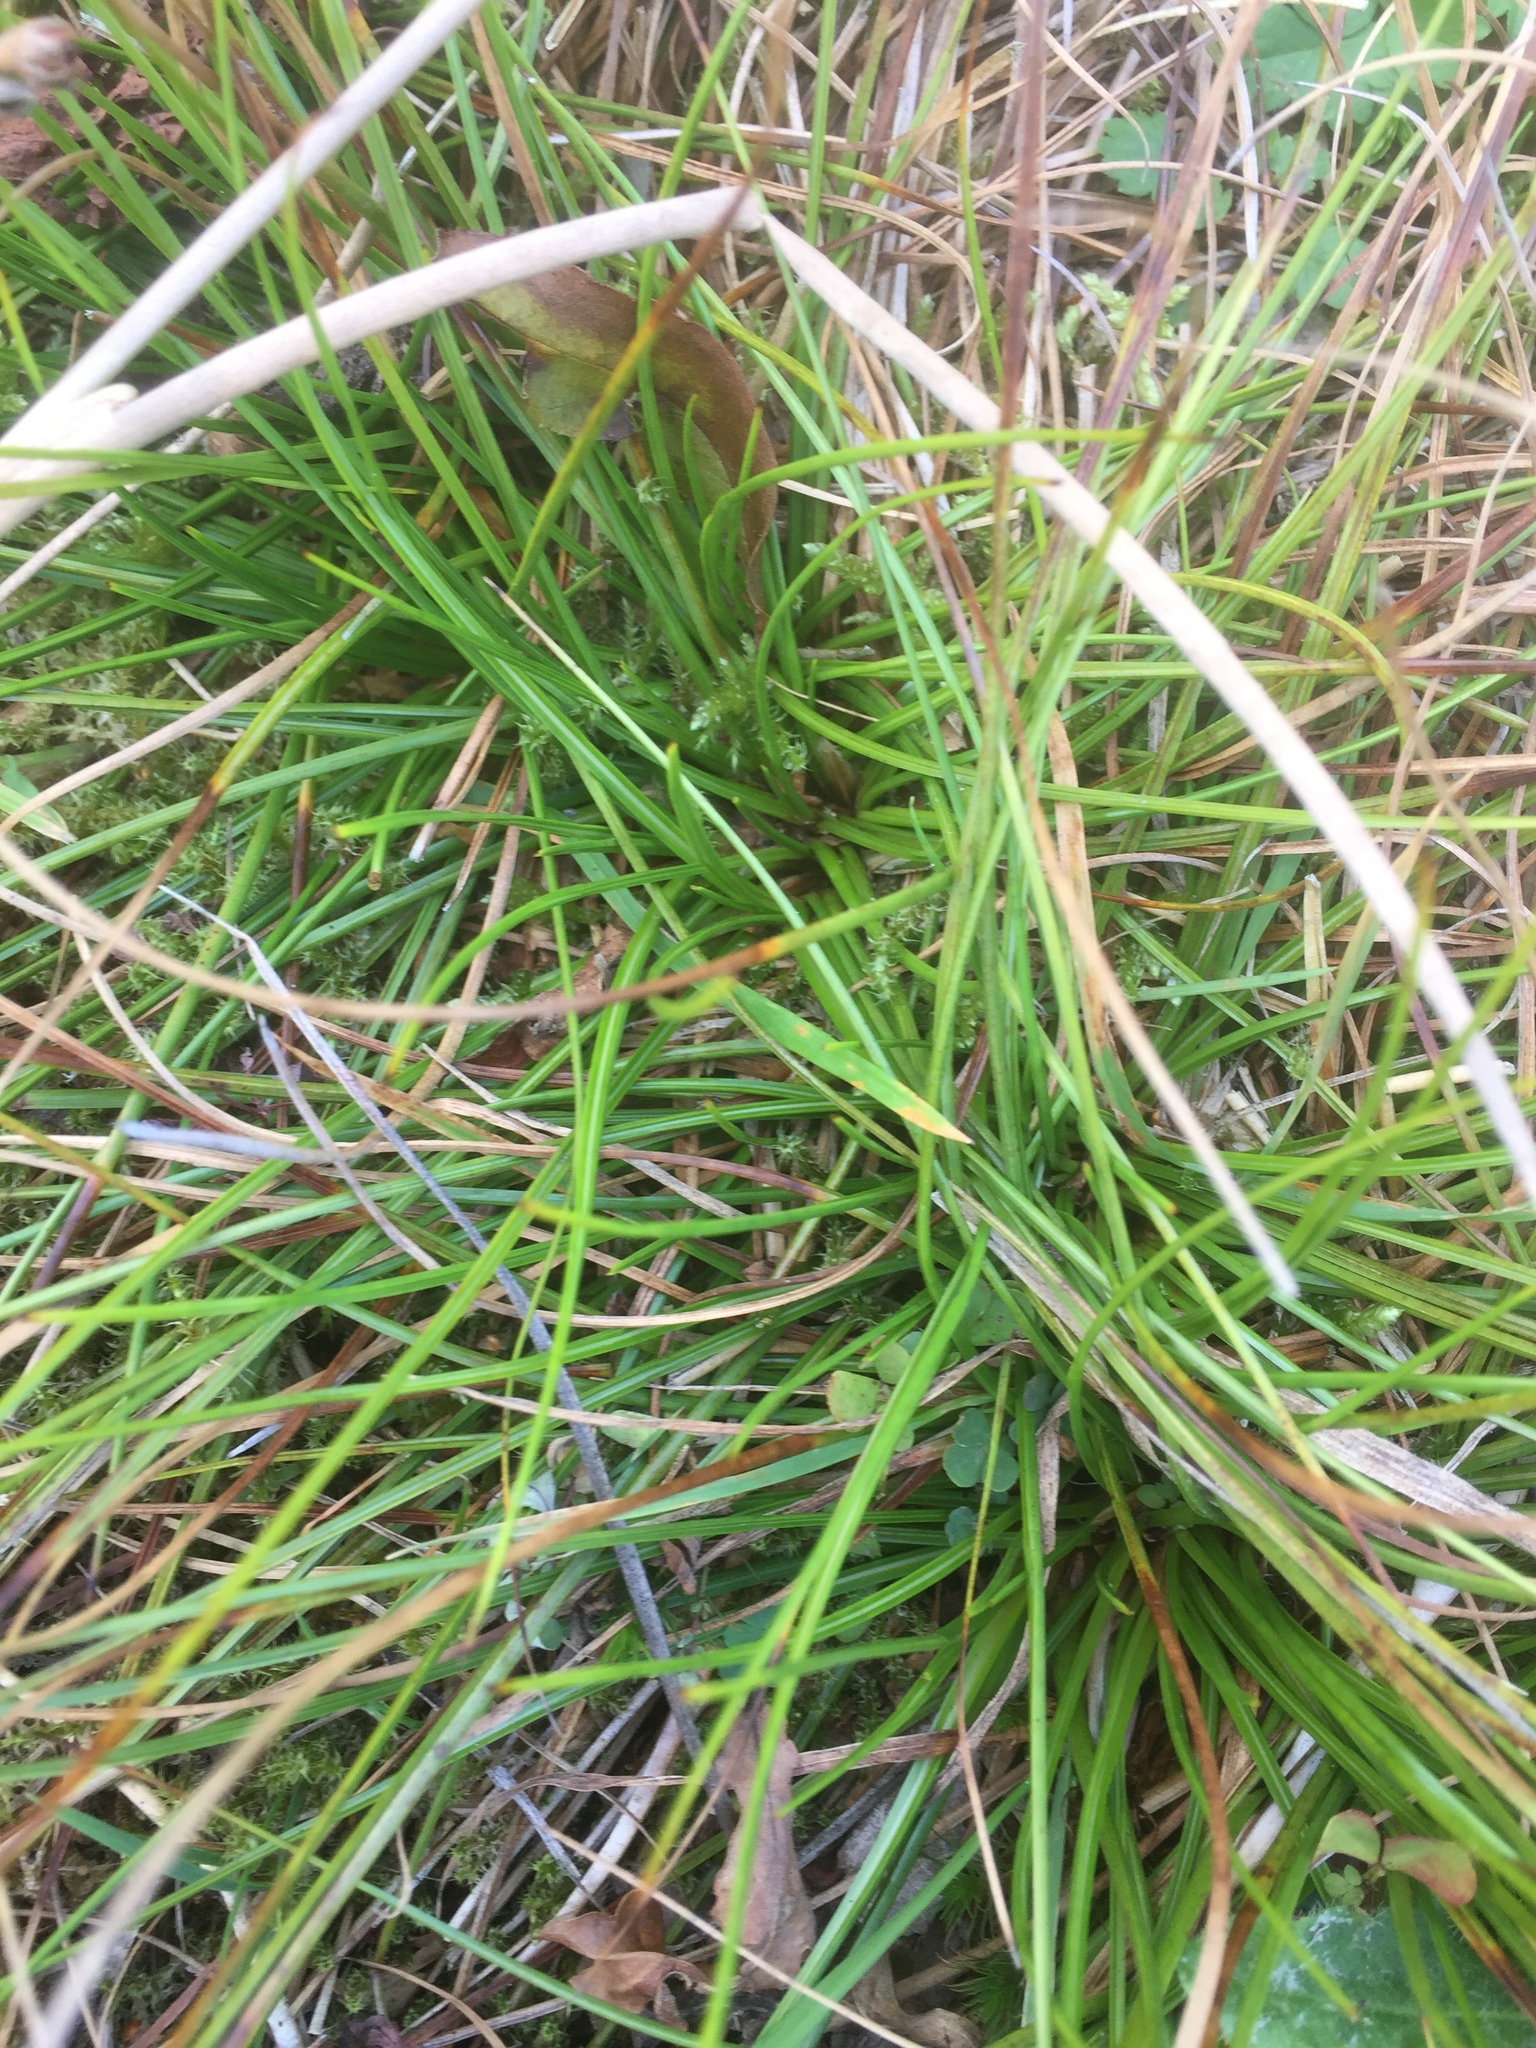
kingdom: Plantae
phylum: Tracheophyta
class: Liliopsida
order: Poales
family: Juncaceae
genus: Juncus
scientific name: Juncus squarrosus
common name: Heath rush
